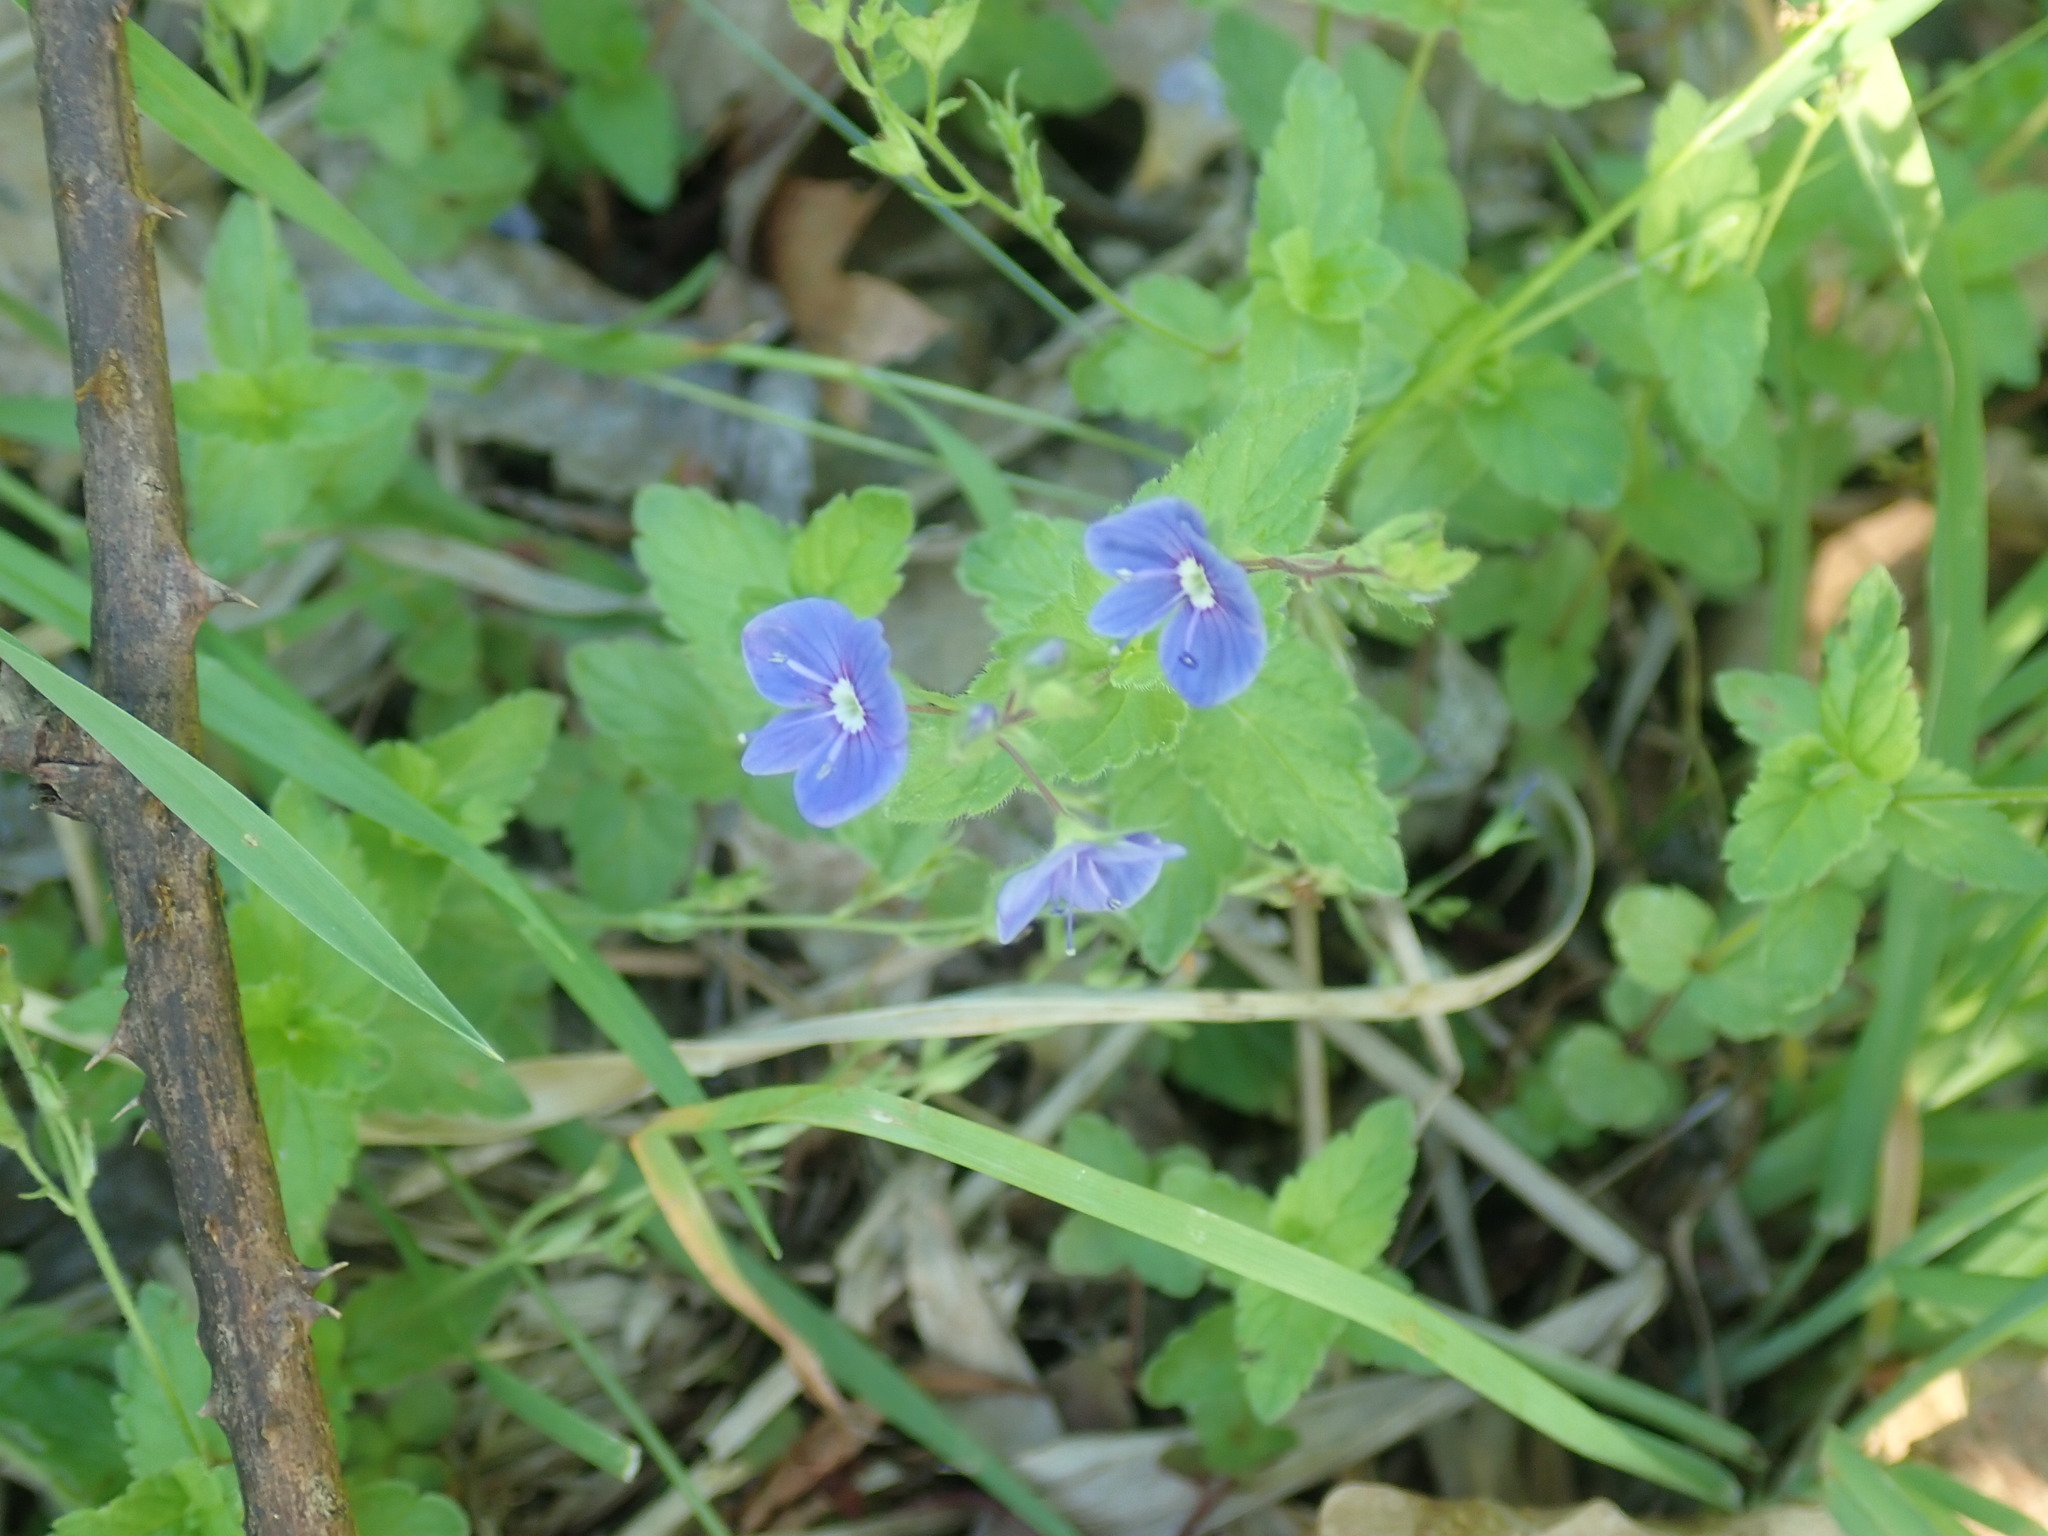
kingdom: Plantae
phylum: Tracheophyta
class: Magnoliopsida
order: Lamiales
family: Plantaginaceae
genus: Veronica
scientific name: Veronica chamaedrys
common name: Germander speedwell
